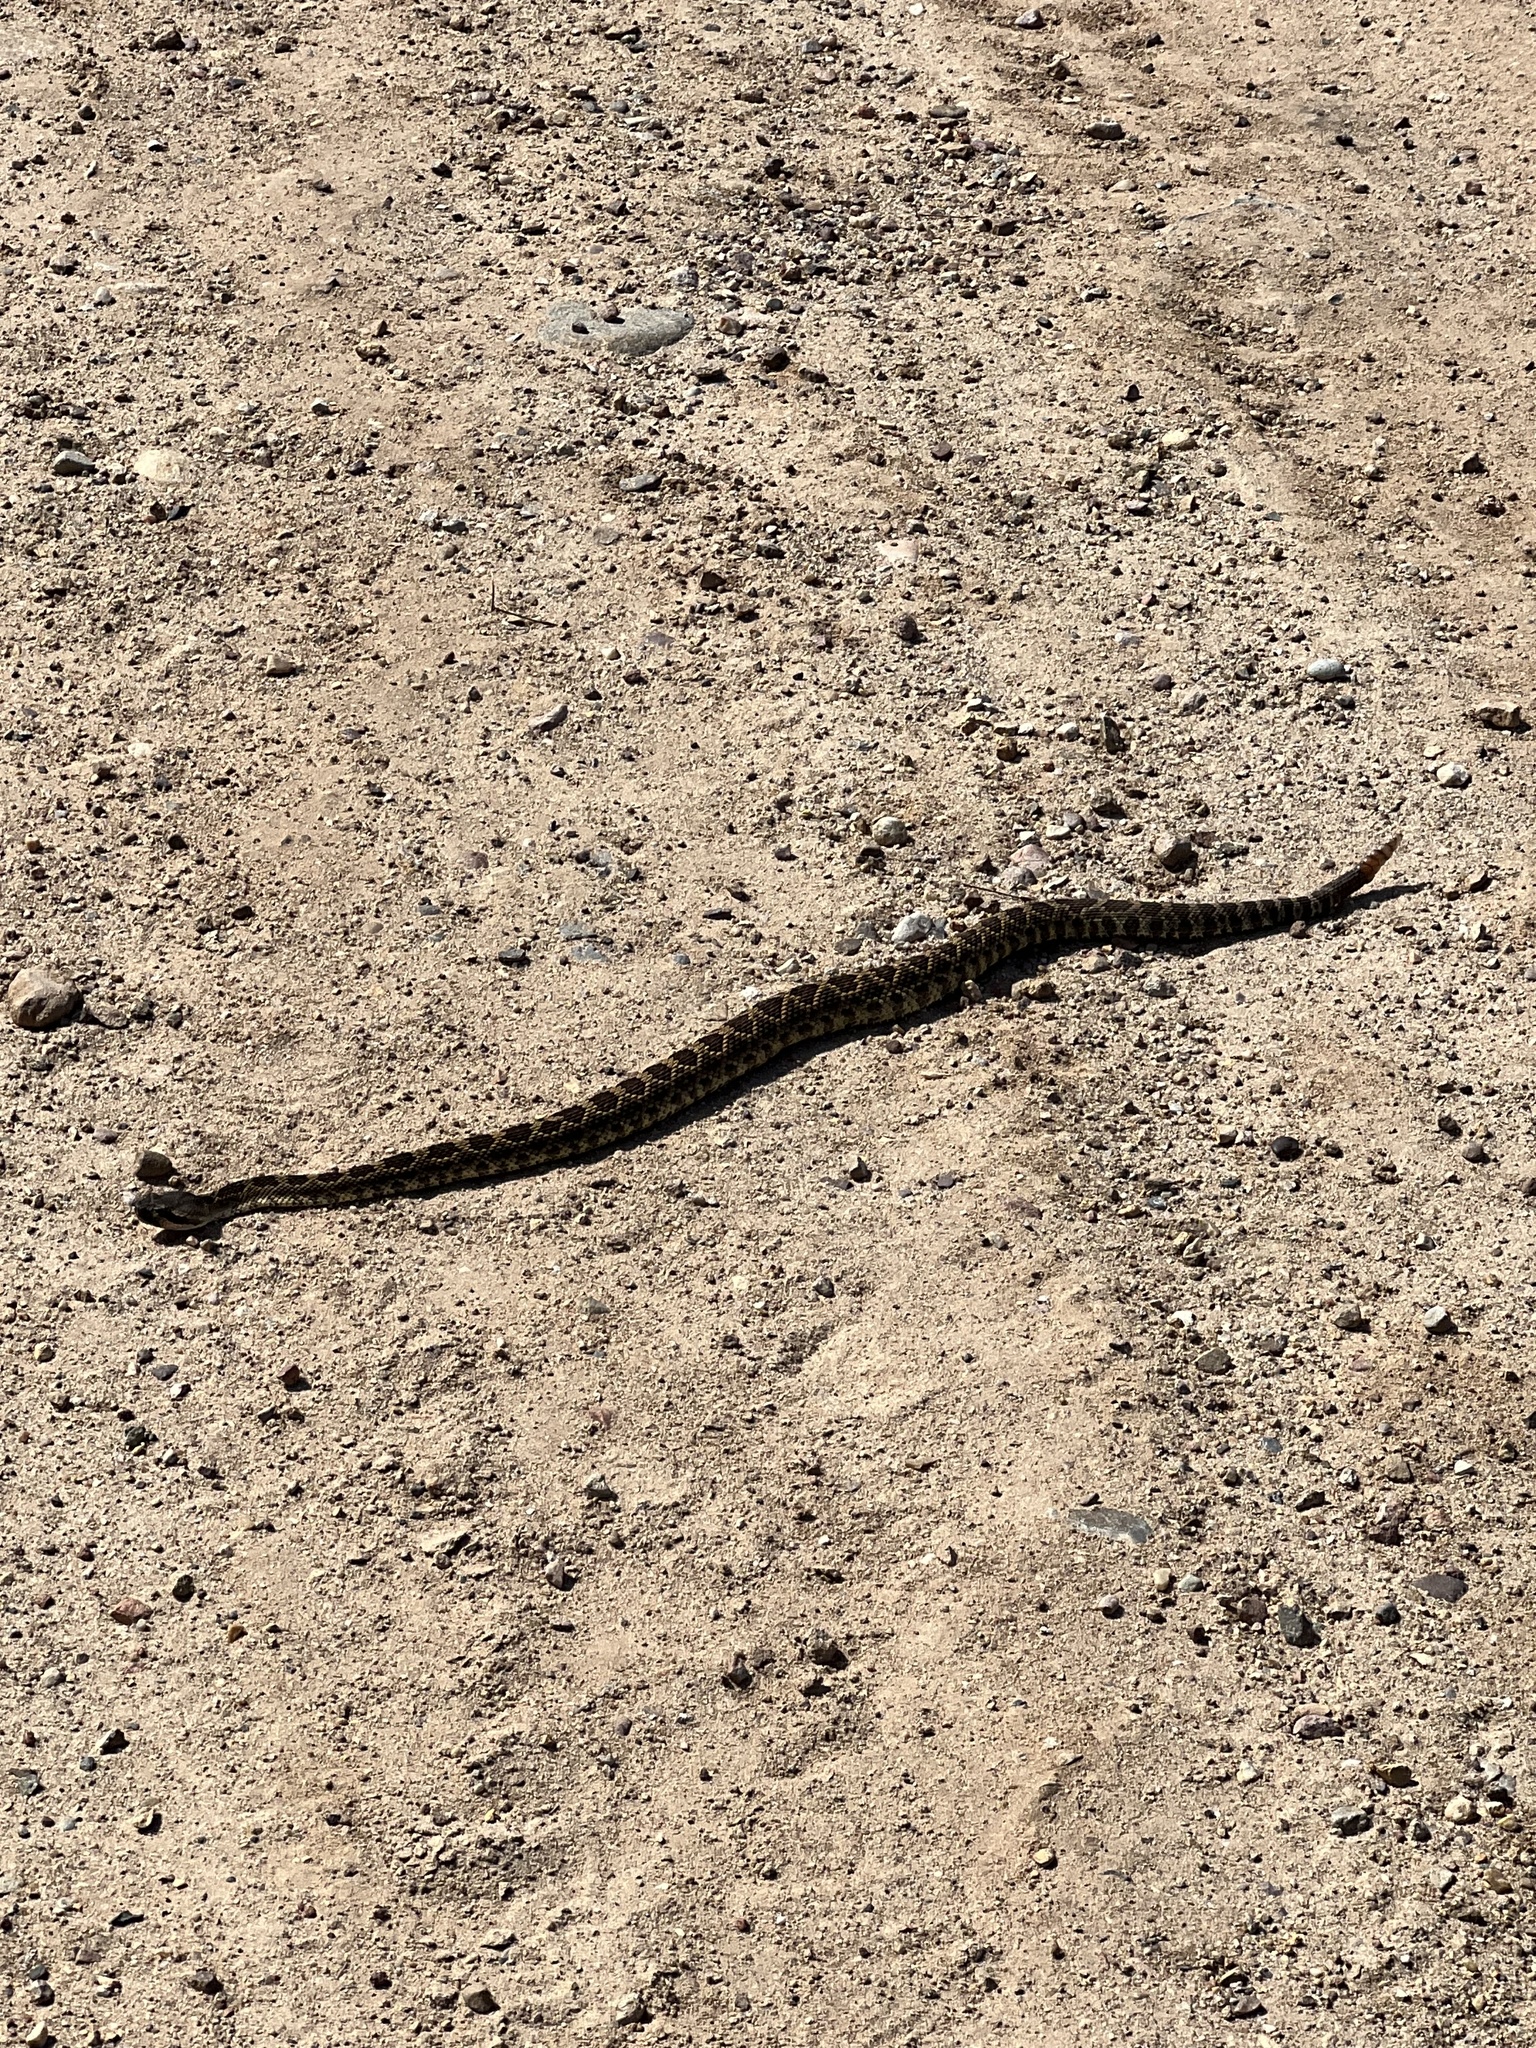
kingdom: Animalia
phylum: Chordata
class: Squamata
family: Viperidae
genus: Crotalus
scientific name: Crotalus oreganus
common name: Abyssus
